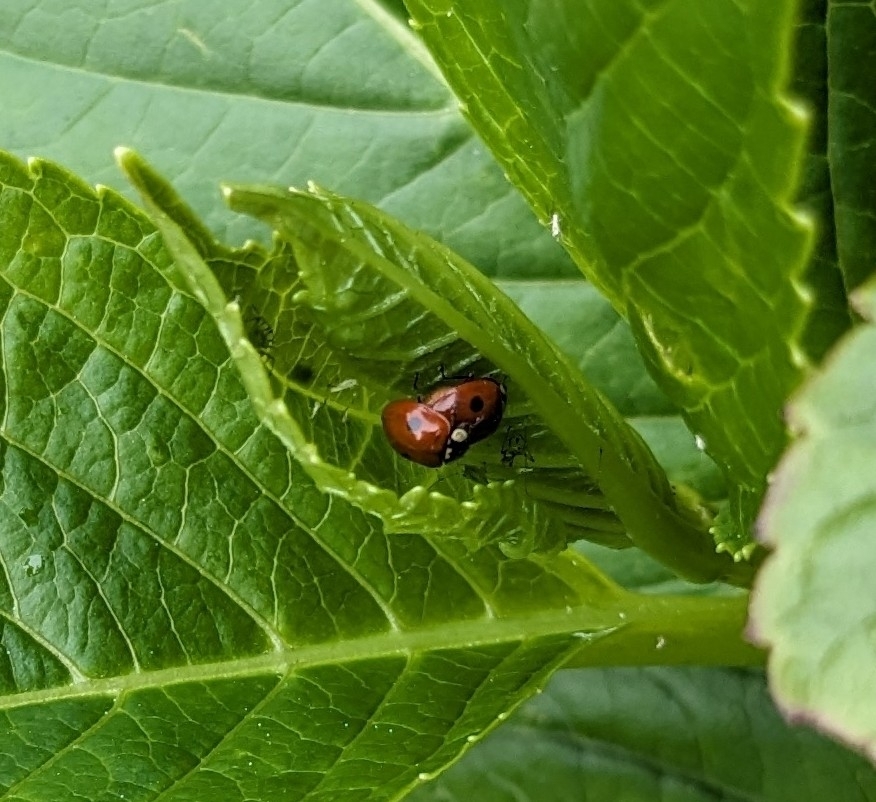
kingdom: Animalia
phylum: Arthropoda
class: Insecta
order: Coleoptera
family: Coccinellidae
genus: Adalia
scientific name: Adalia bipunctata
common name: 2-spot ladybird
